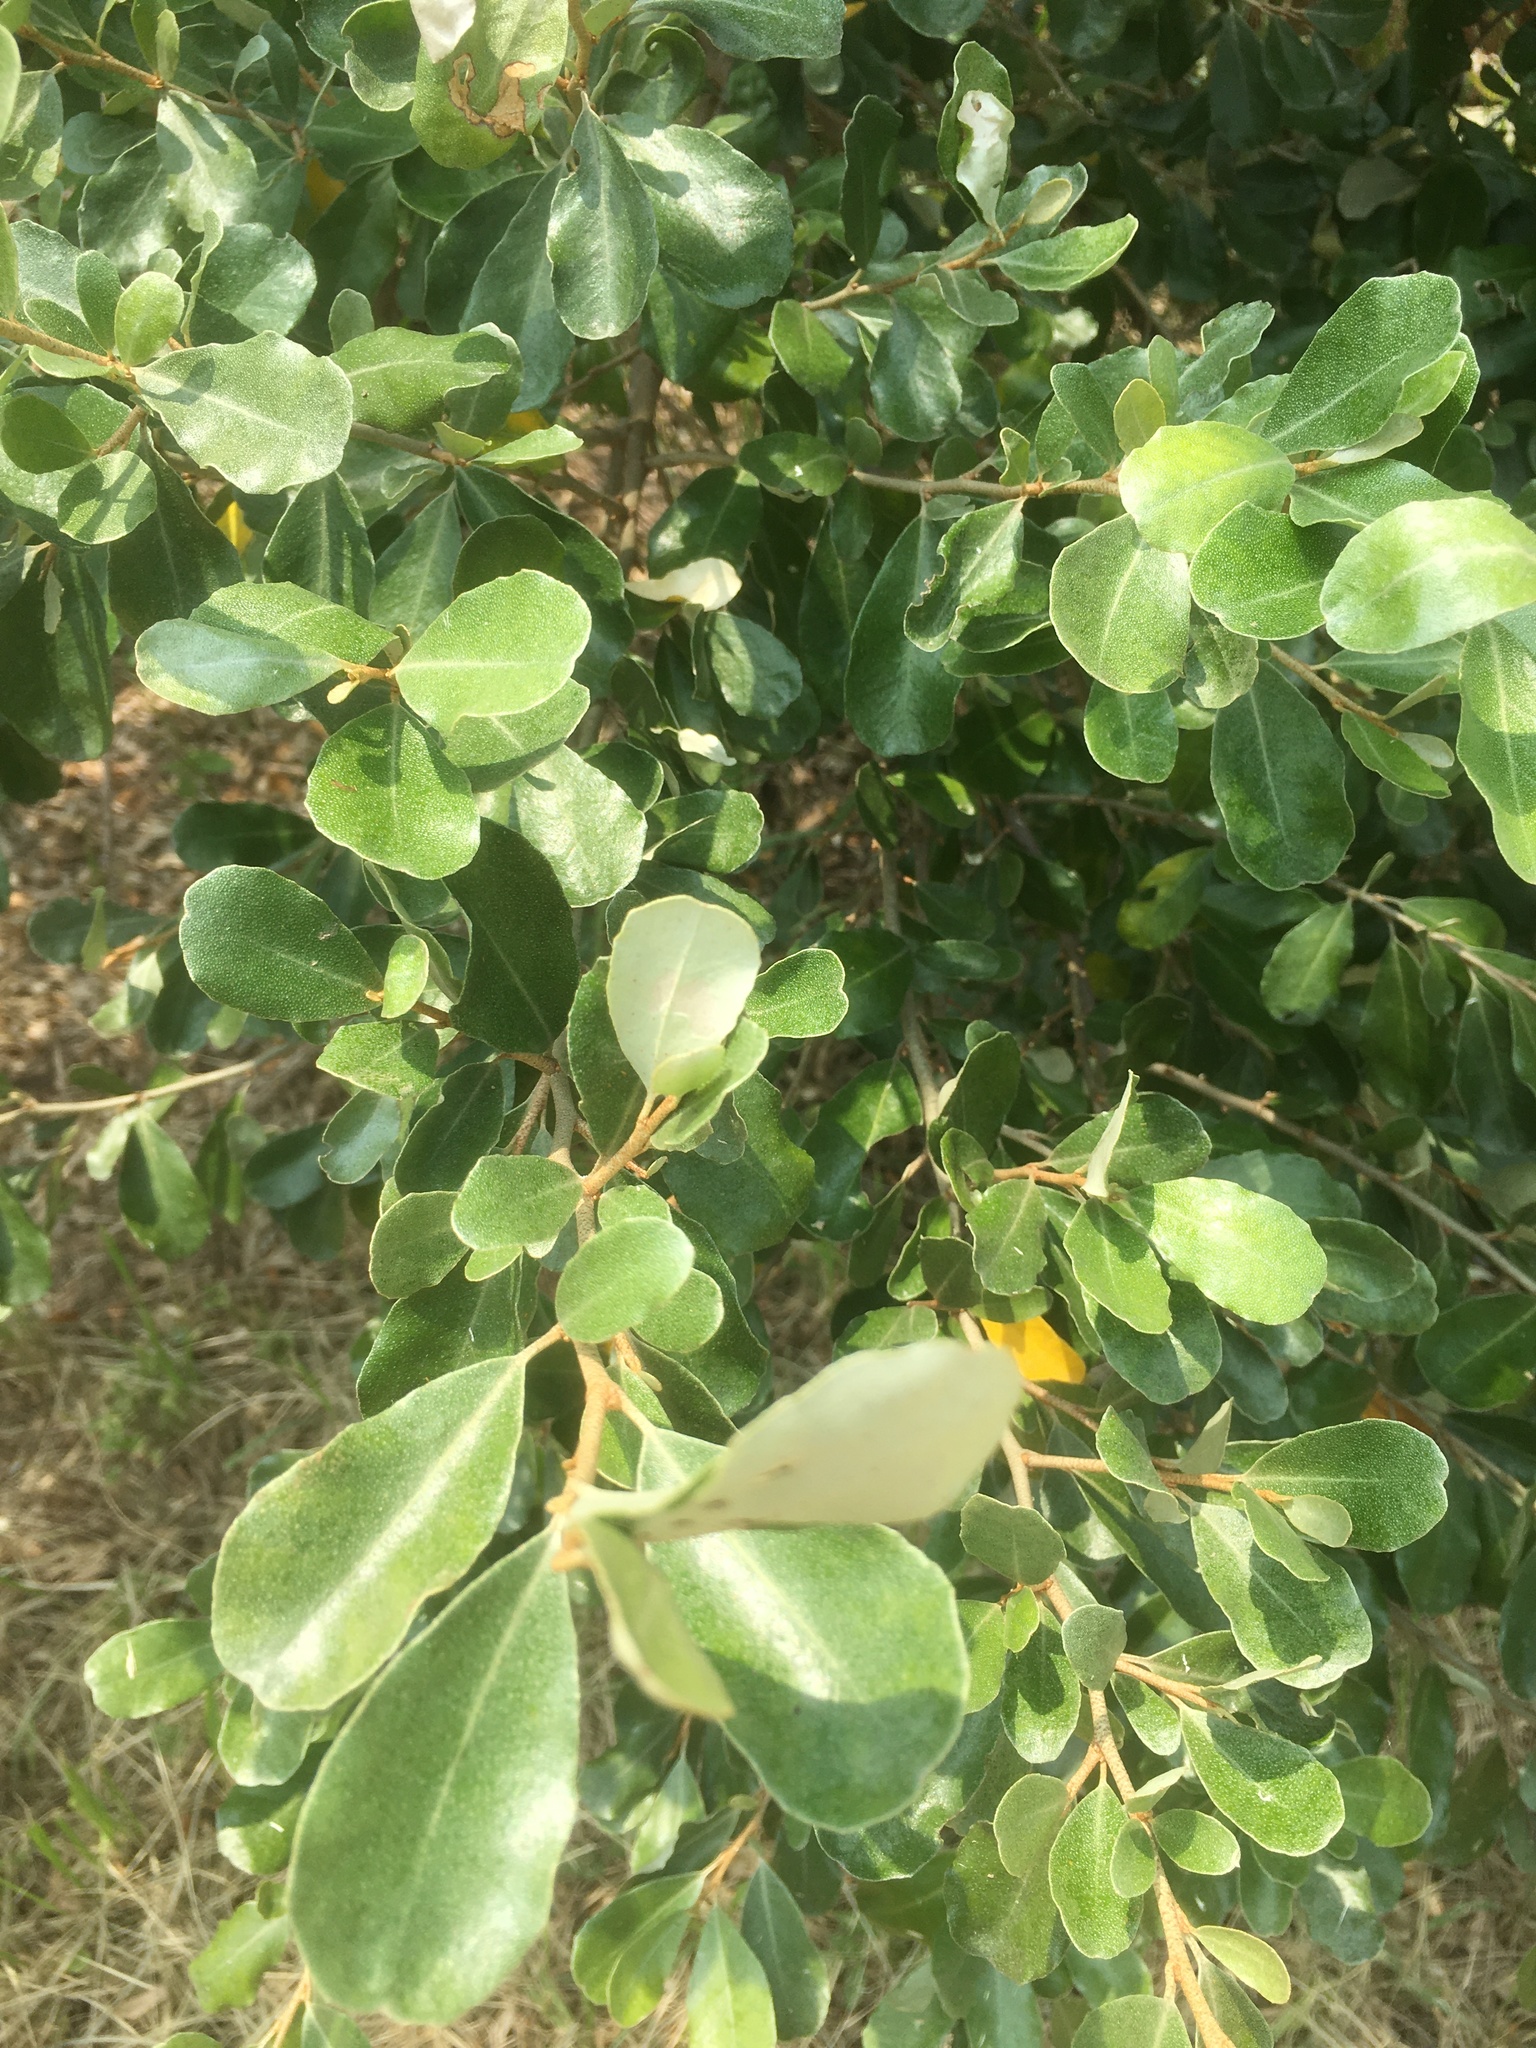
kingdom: Plantae
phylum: Tracheophyta
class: Magnoliopsida
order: Rosales
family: Elaeagnaceae
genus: Elaeagnus
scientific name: Elaeagnus oldhamii
